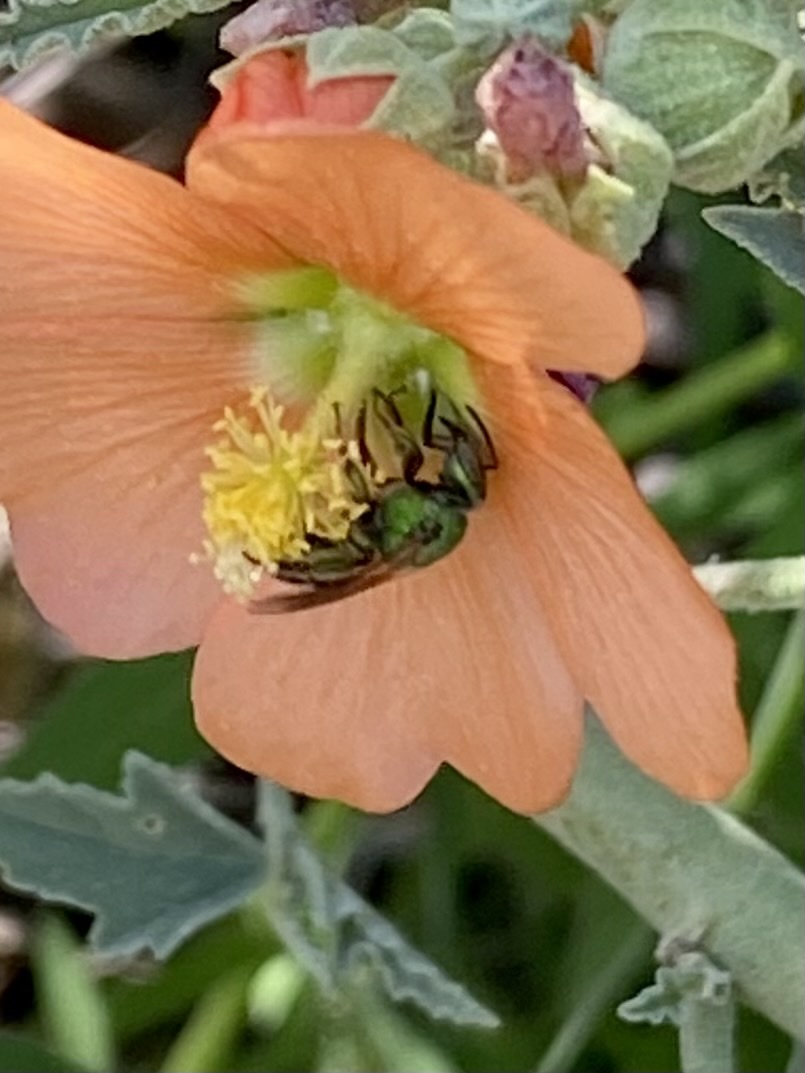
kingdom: Animalia
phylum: Arthropoda
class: Insecta
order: Hymenoptera
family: Halictidae
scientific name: Halictidae
